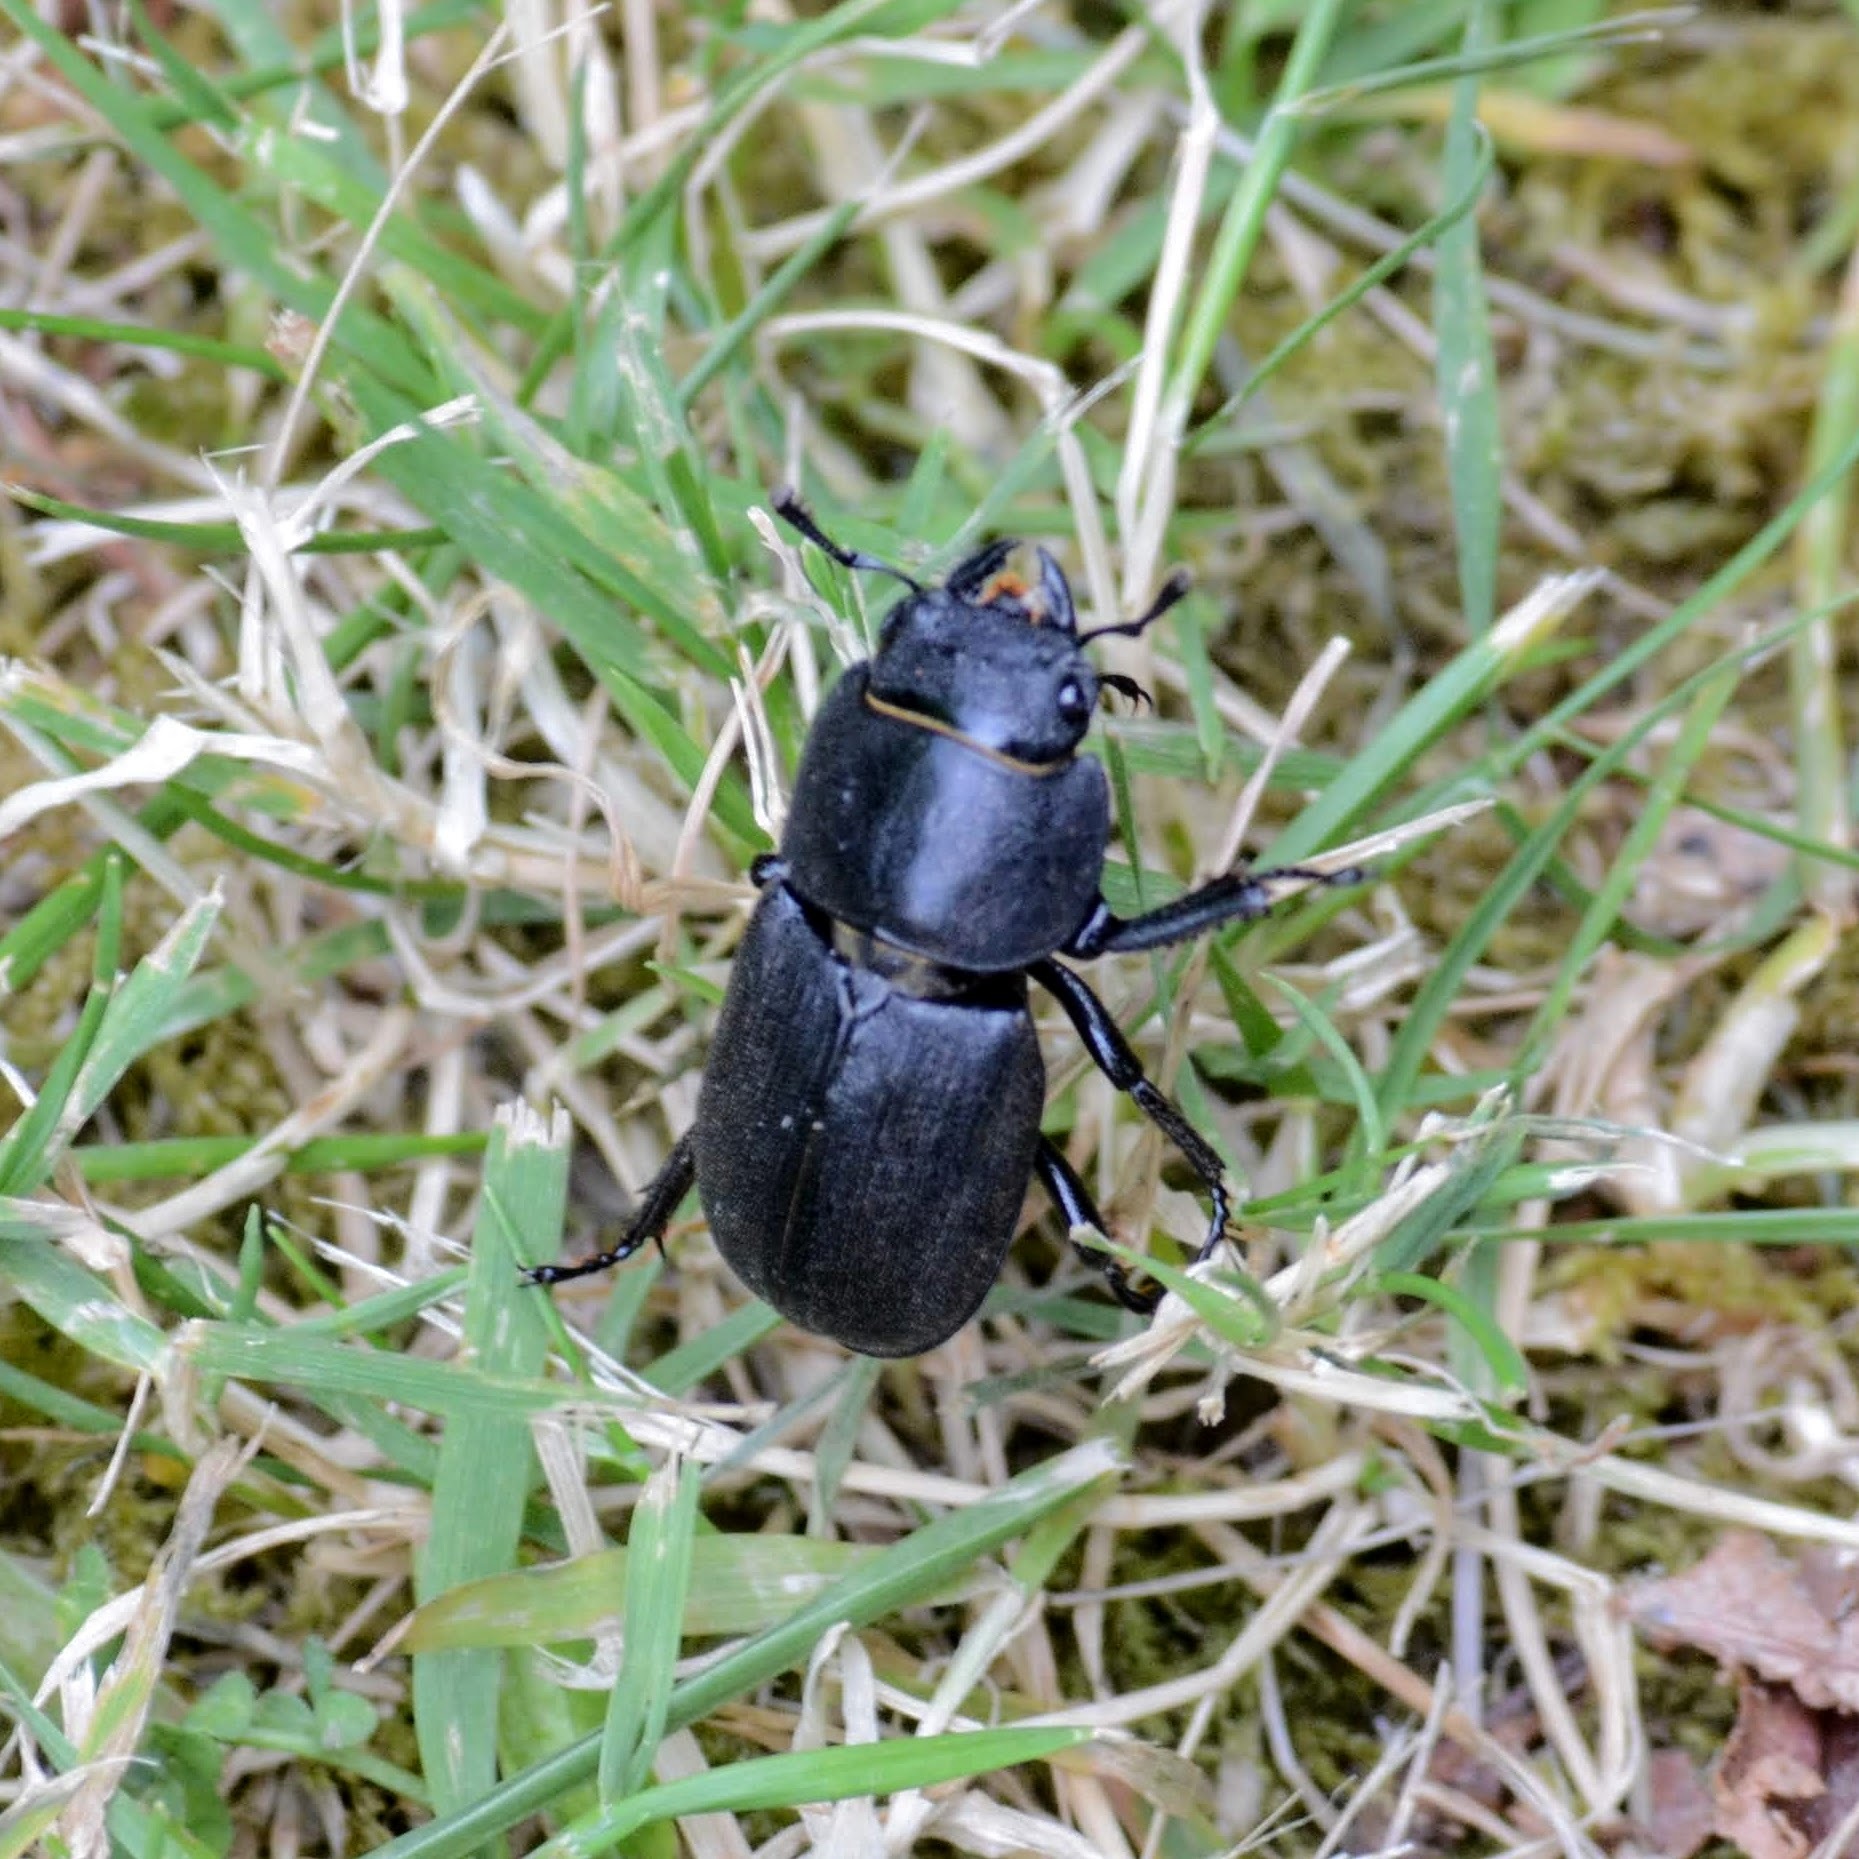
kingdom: Animalia
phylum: Arthropoda
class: Insecta
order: Coleoptera
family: Lucanidae
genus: Dorcus
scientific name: Dorcus parallelipipedus
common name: Lesser stag beetle
